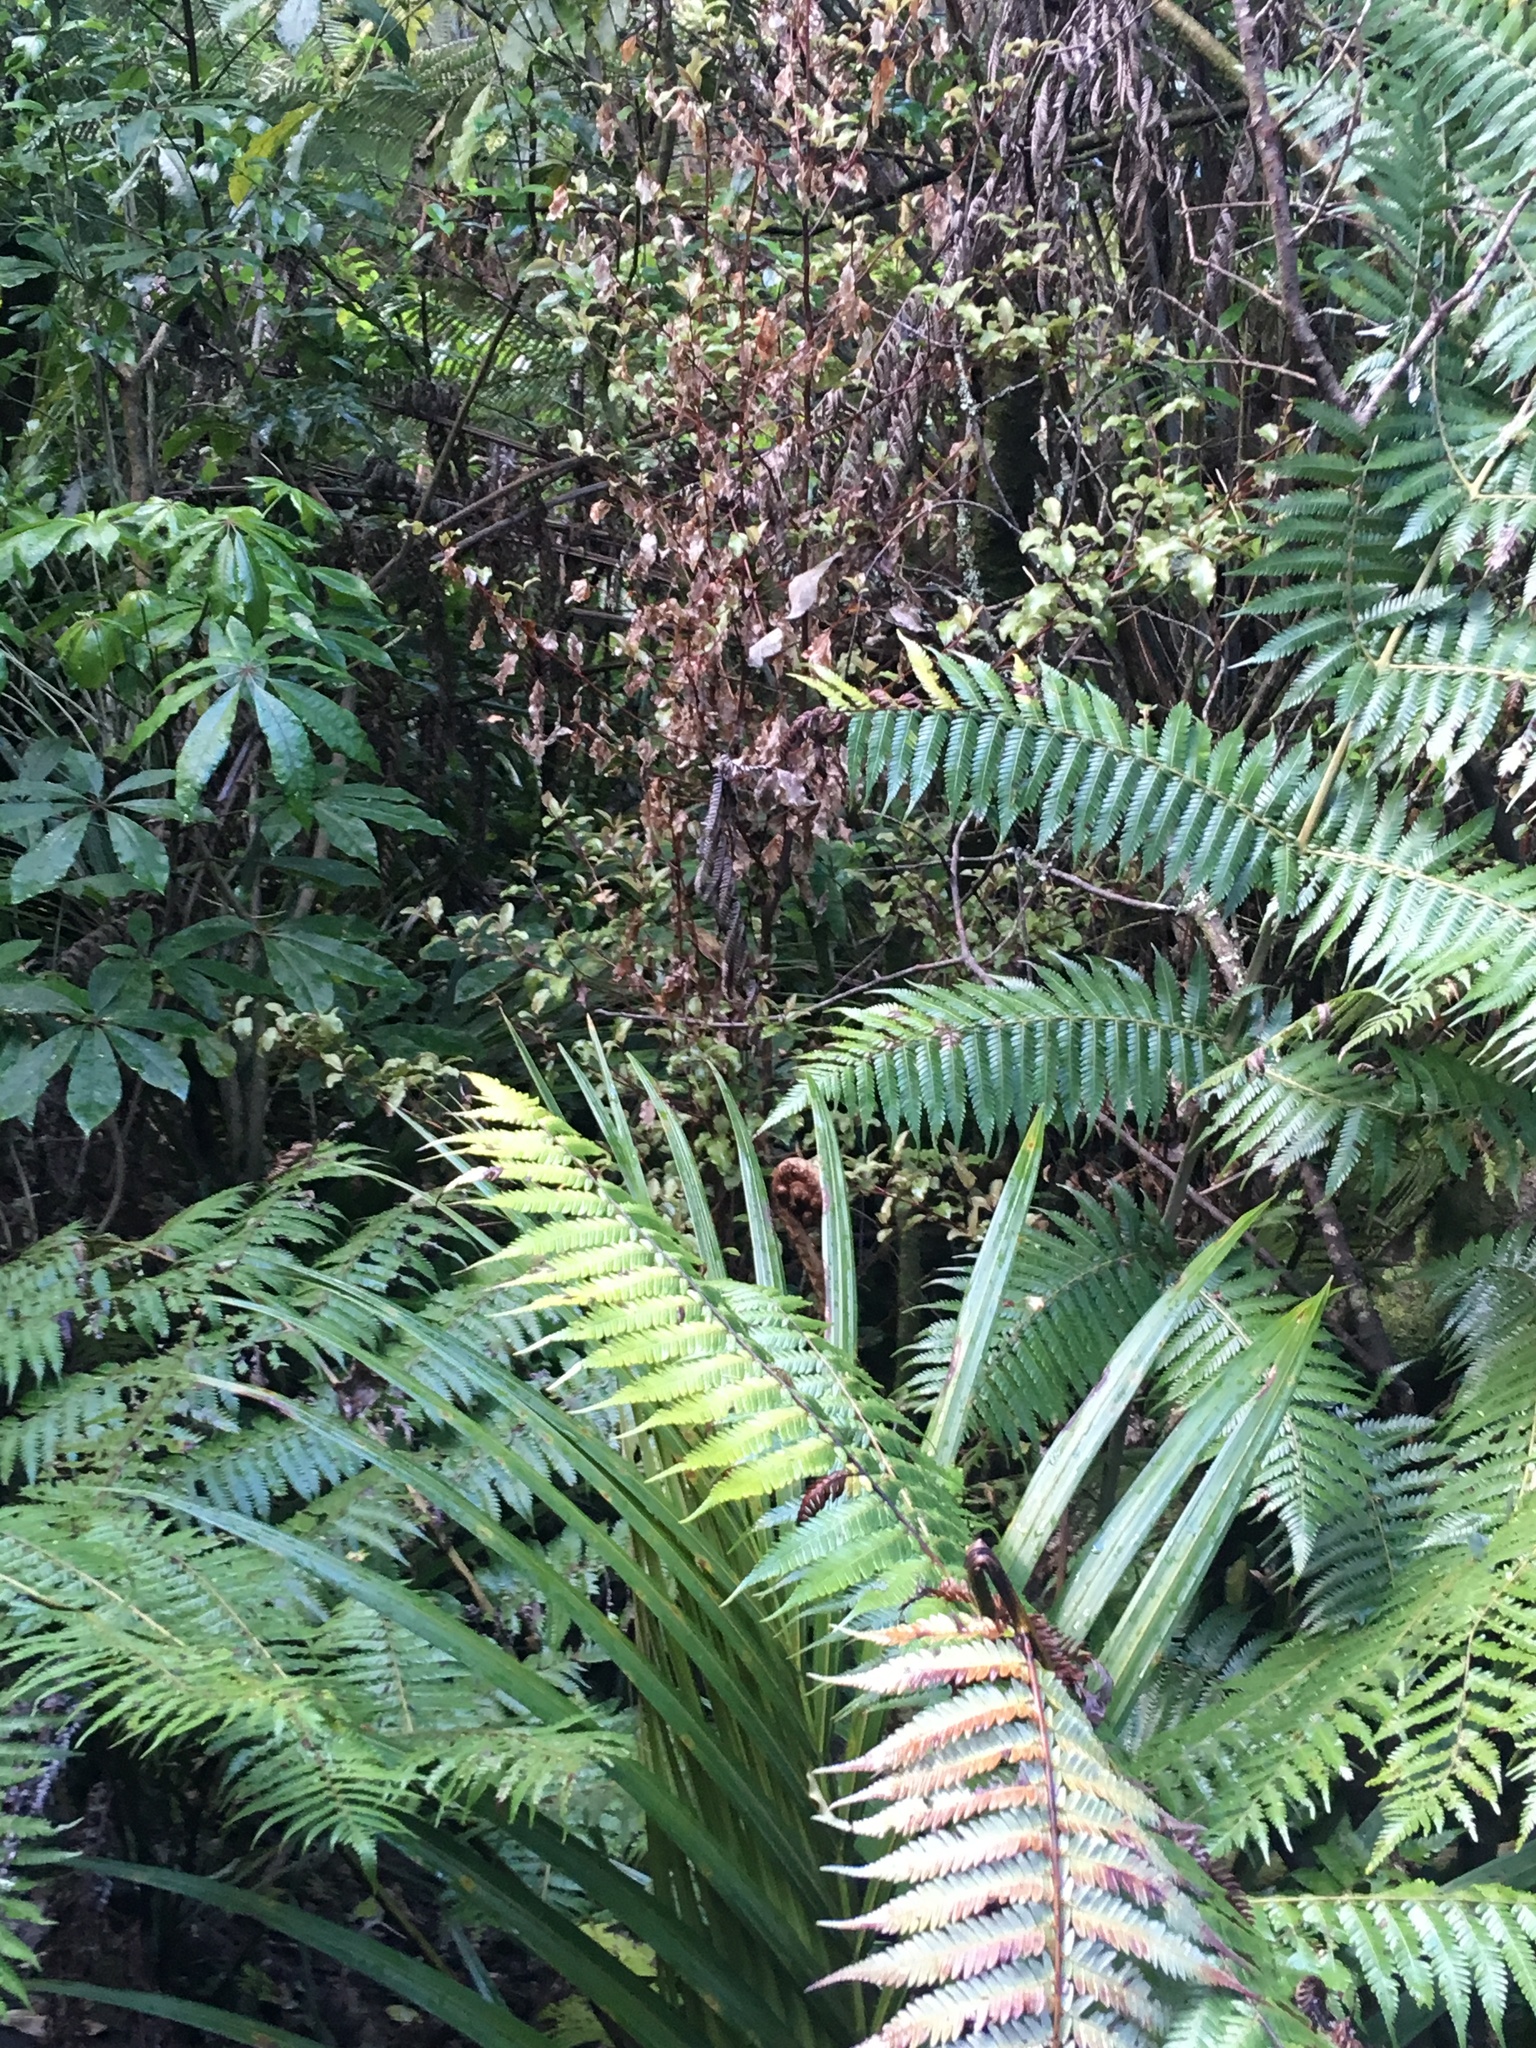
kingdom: Plantae
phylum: Tracheophyta
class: Magnoliopsida
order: Ericales
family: Primulaceae
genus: Myrsine
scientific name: Myrsine australis
